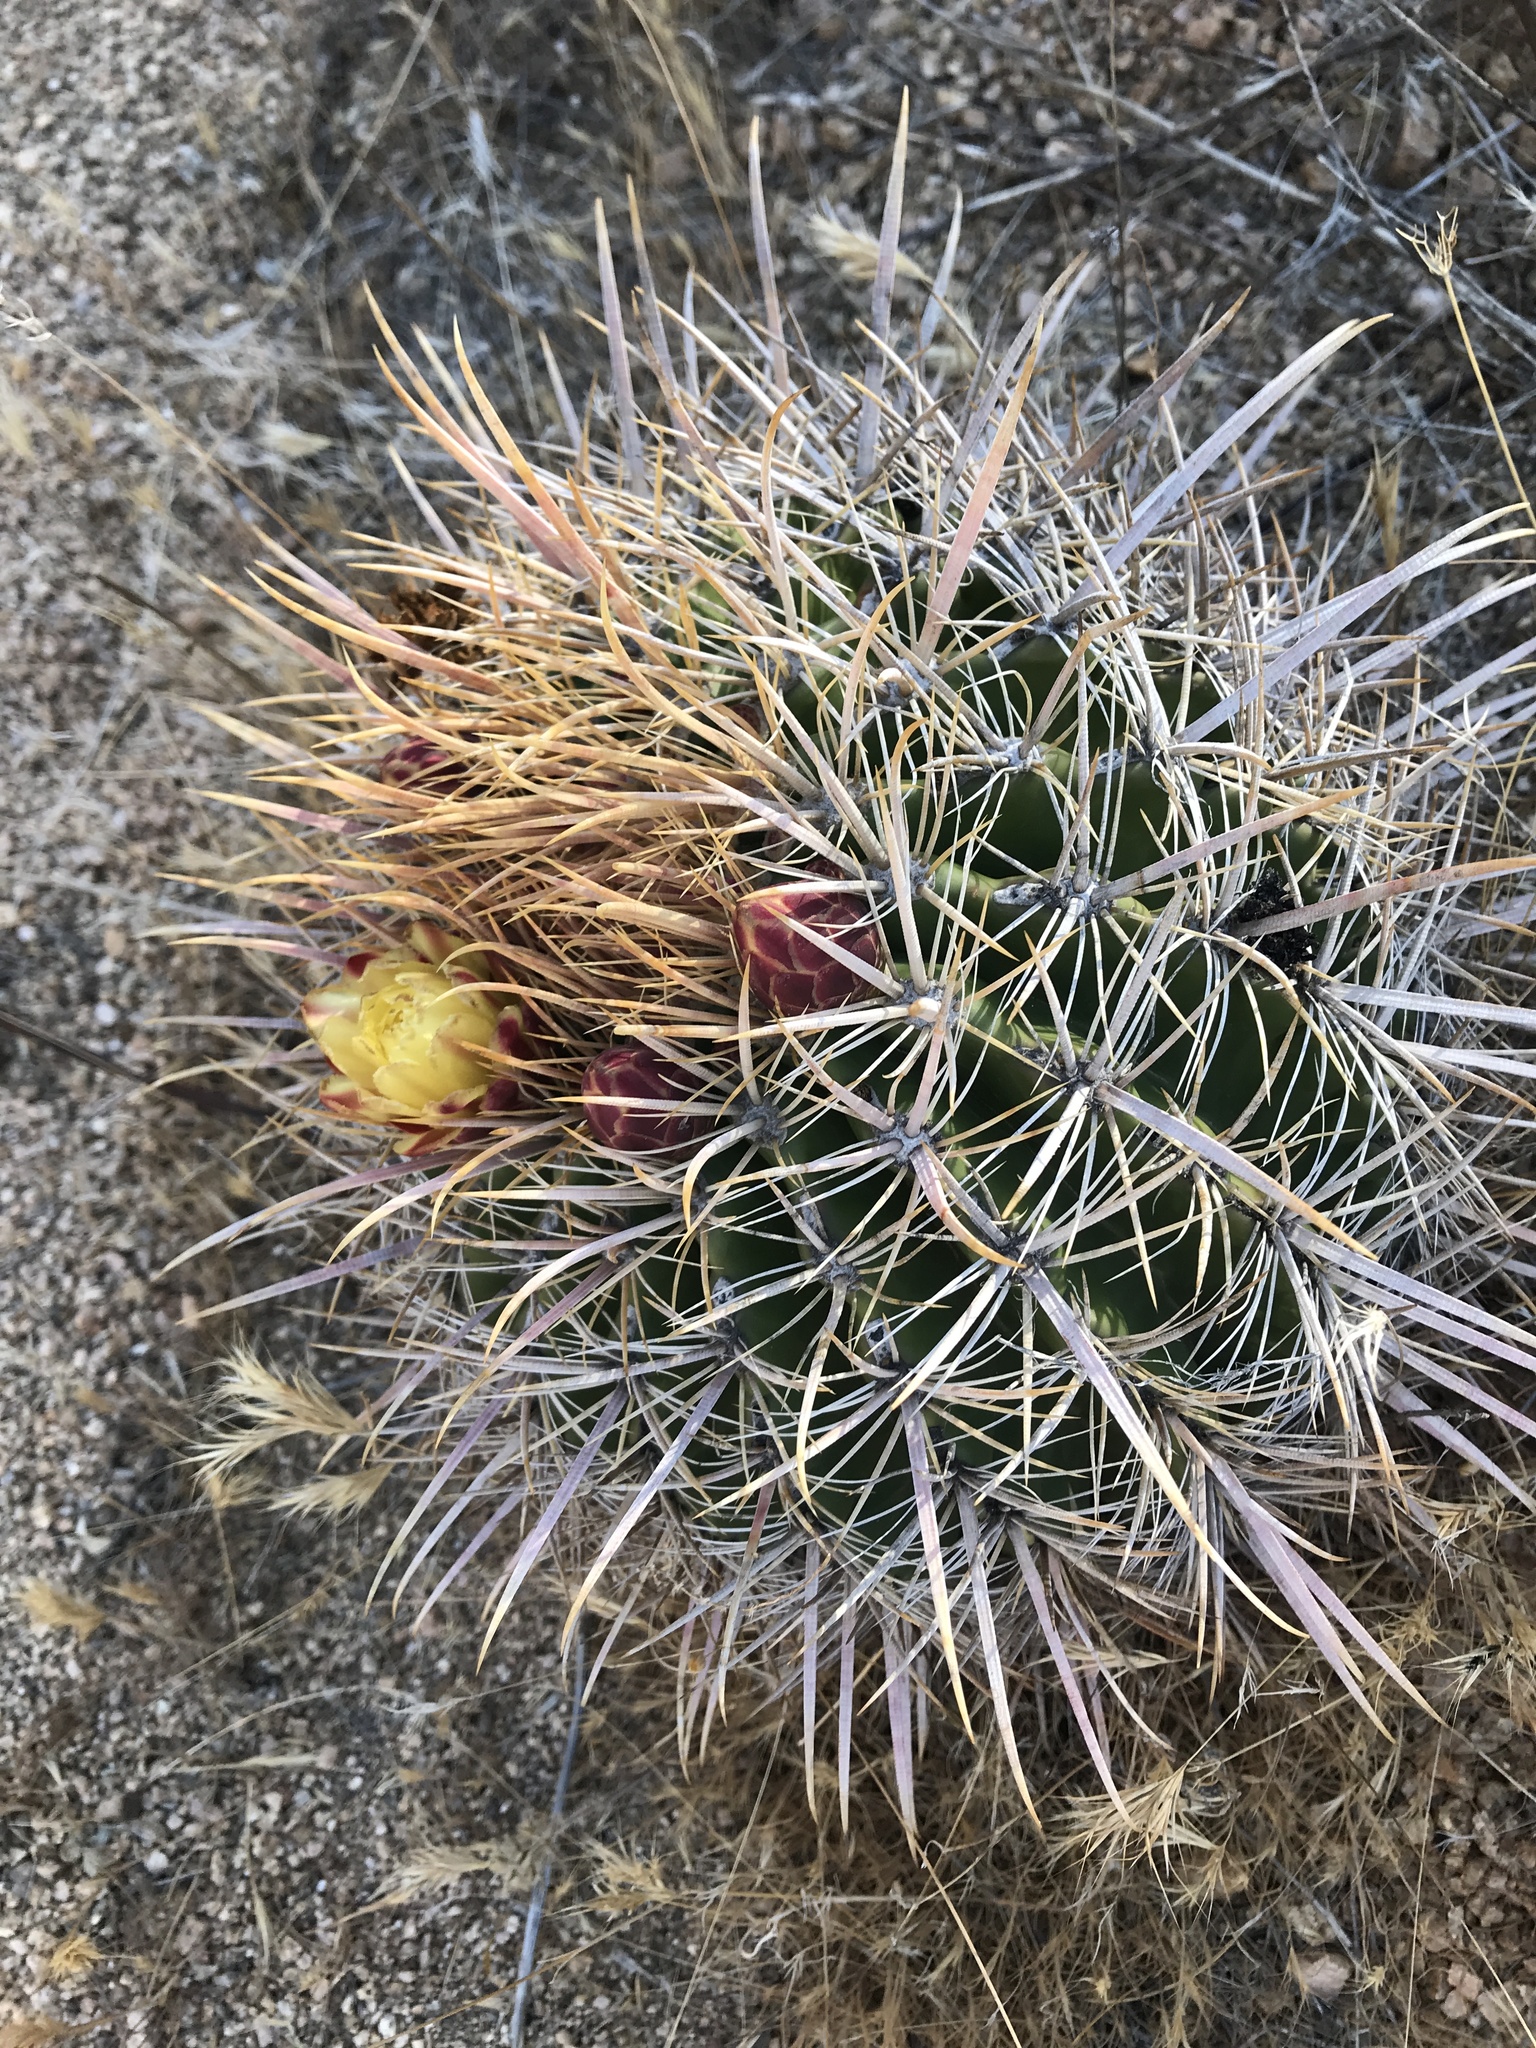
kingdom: Plantae
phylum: Tracheophyta
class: Magnoliopsida
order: Caryophyllales
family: Cactaceae
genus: Ferocactus
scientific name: Ferocactus cylindraceus
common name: California barrel cactus
